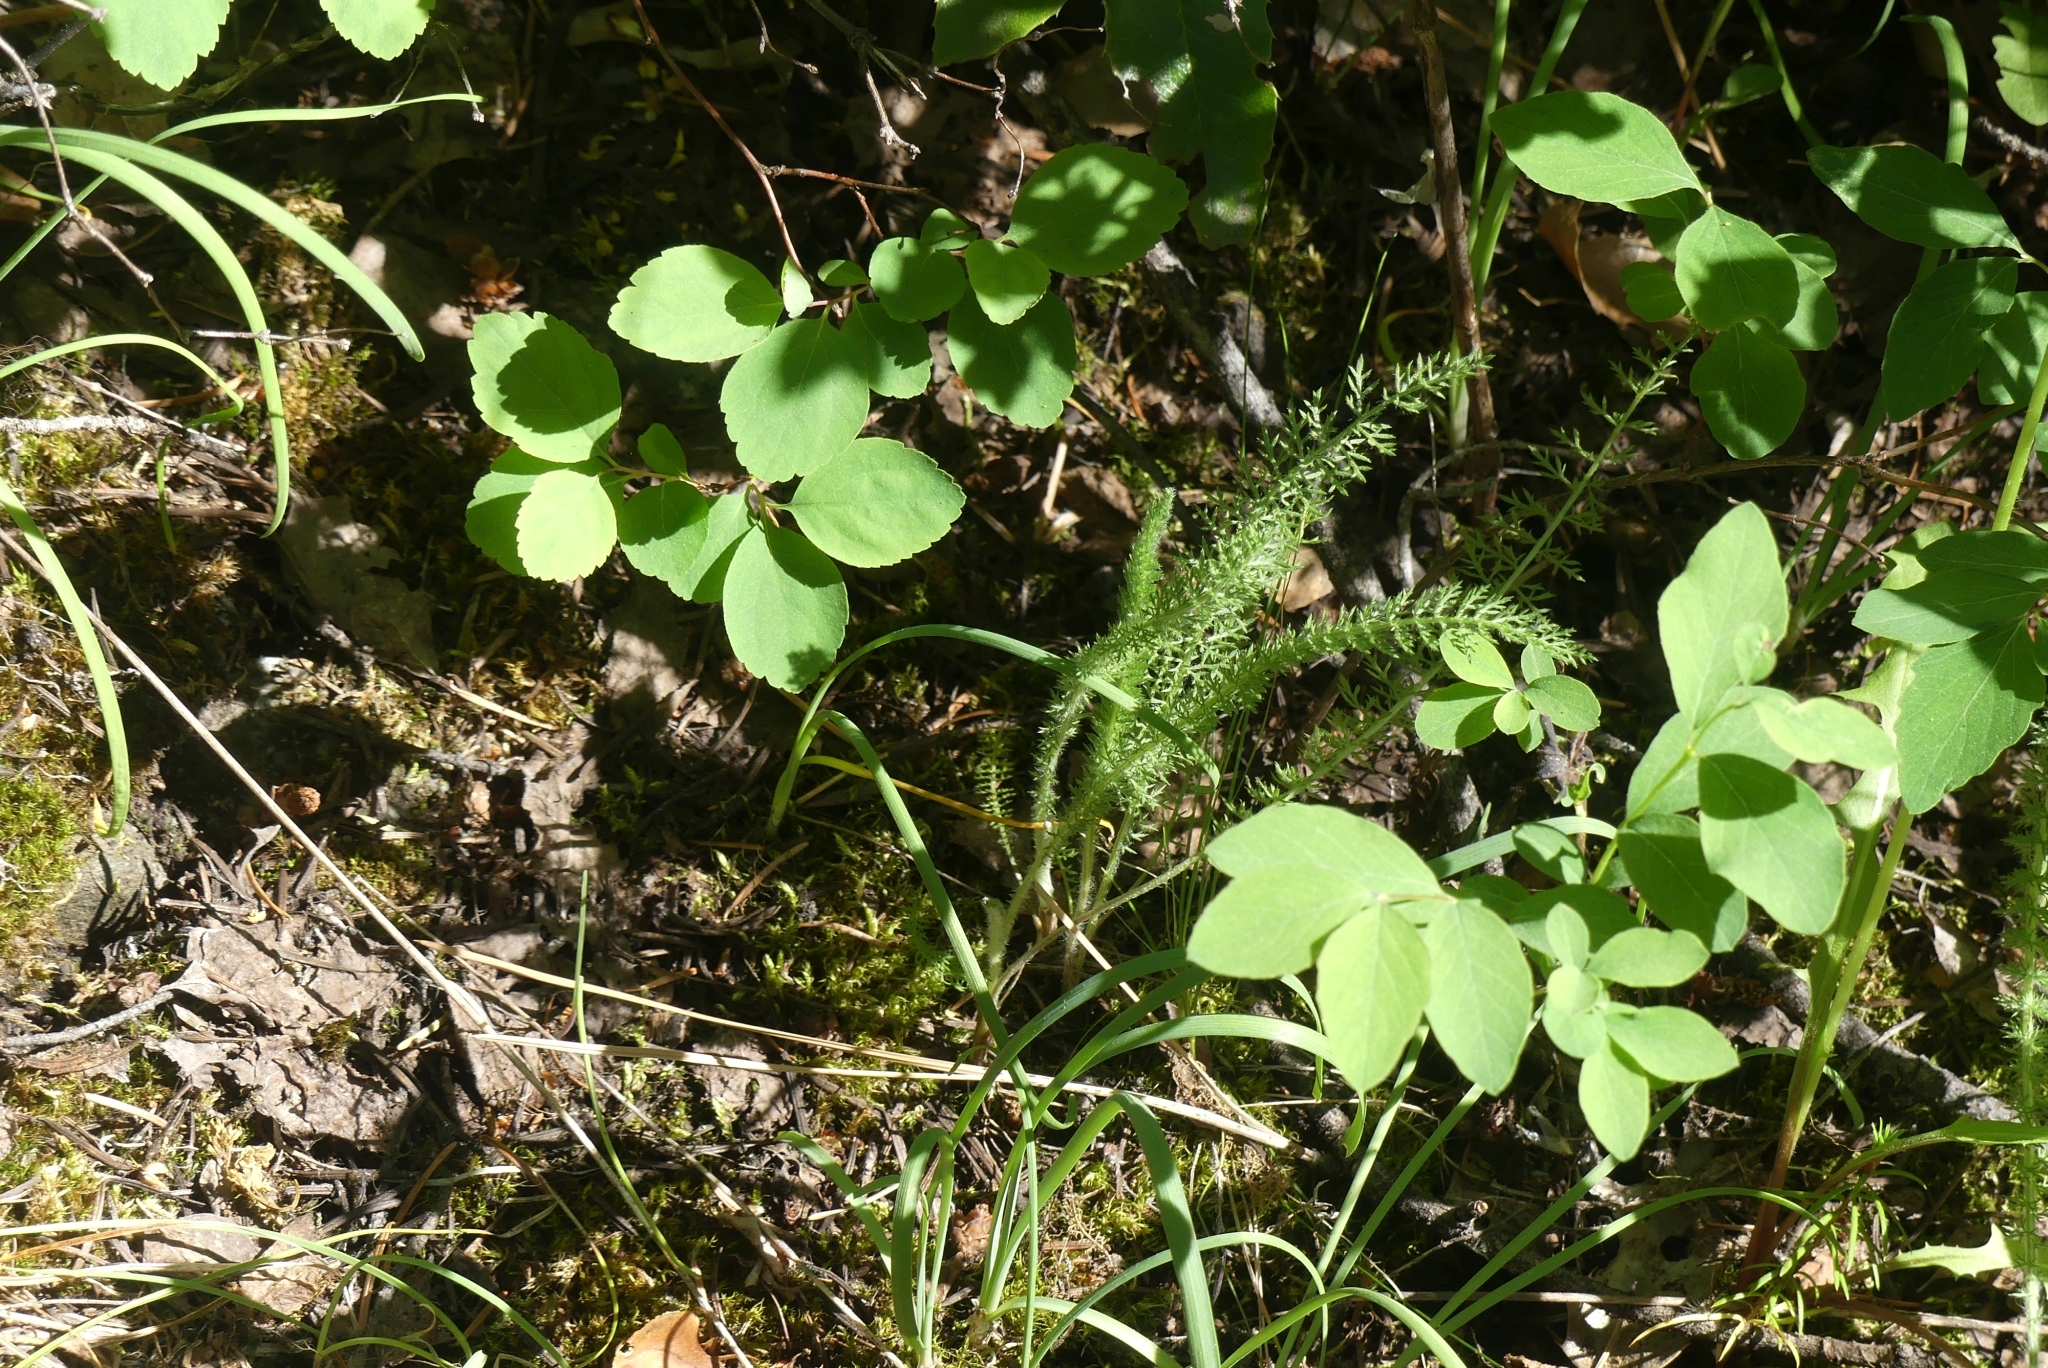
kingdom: Plantae
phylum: Tracheophyta
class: Magnoliopsida
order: Asterales
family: Asteraceae
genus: Achillea
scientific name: Achillea millefolium
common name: Yarrow
